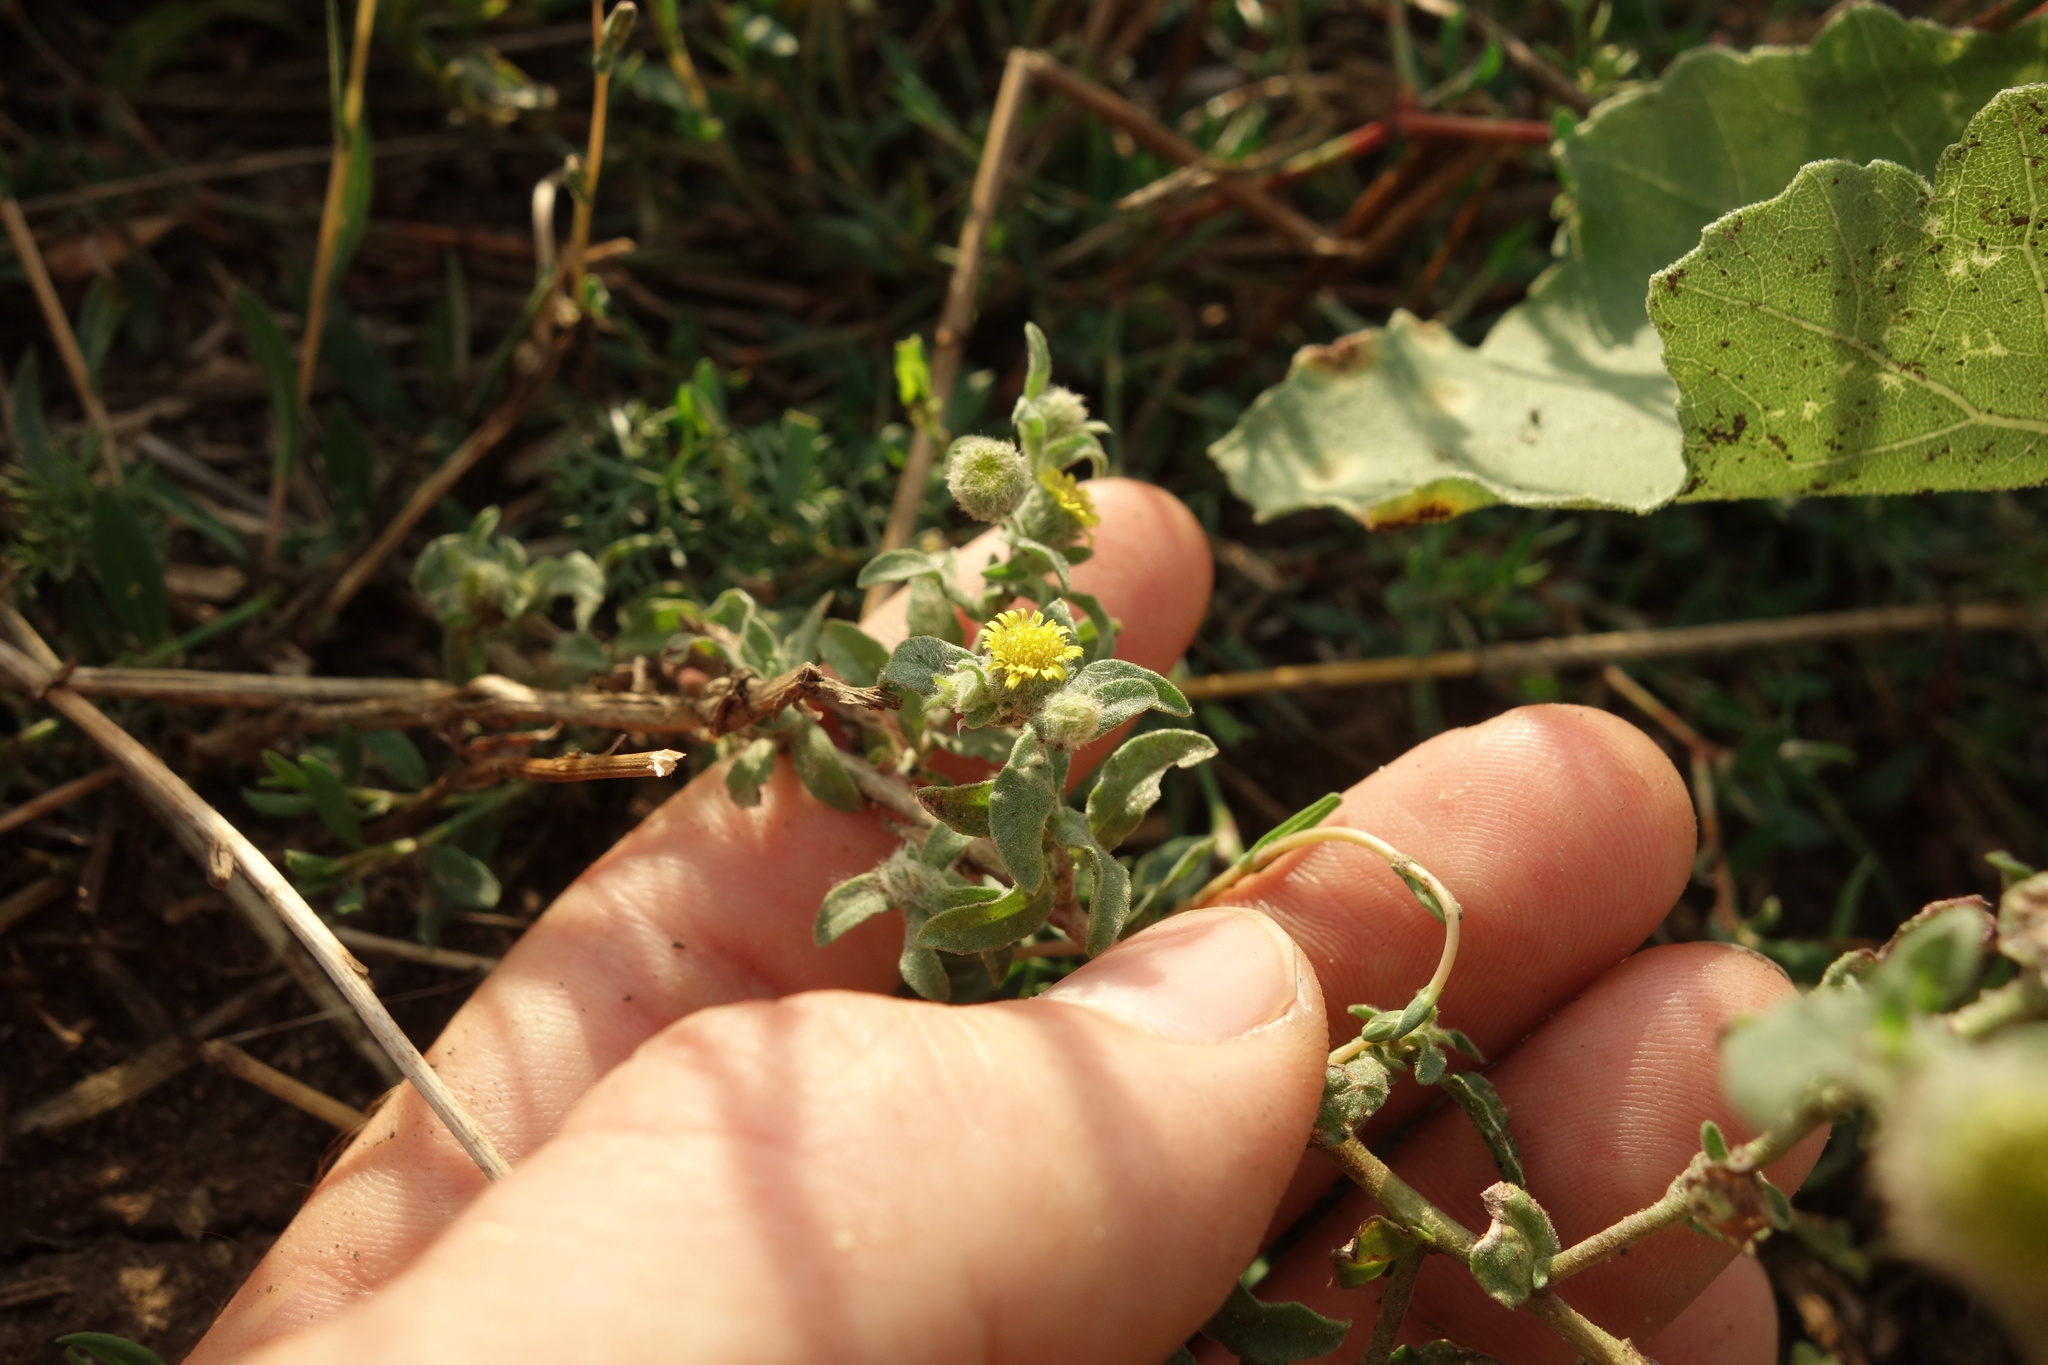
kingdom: Plantae
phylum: Tracheophyta
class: Magnoliopsida
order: Asterales
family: Asteraceae
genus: Pulicaria
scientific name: Pulicaria vulgaris
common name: Small fleabane
